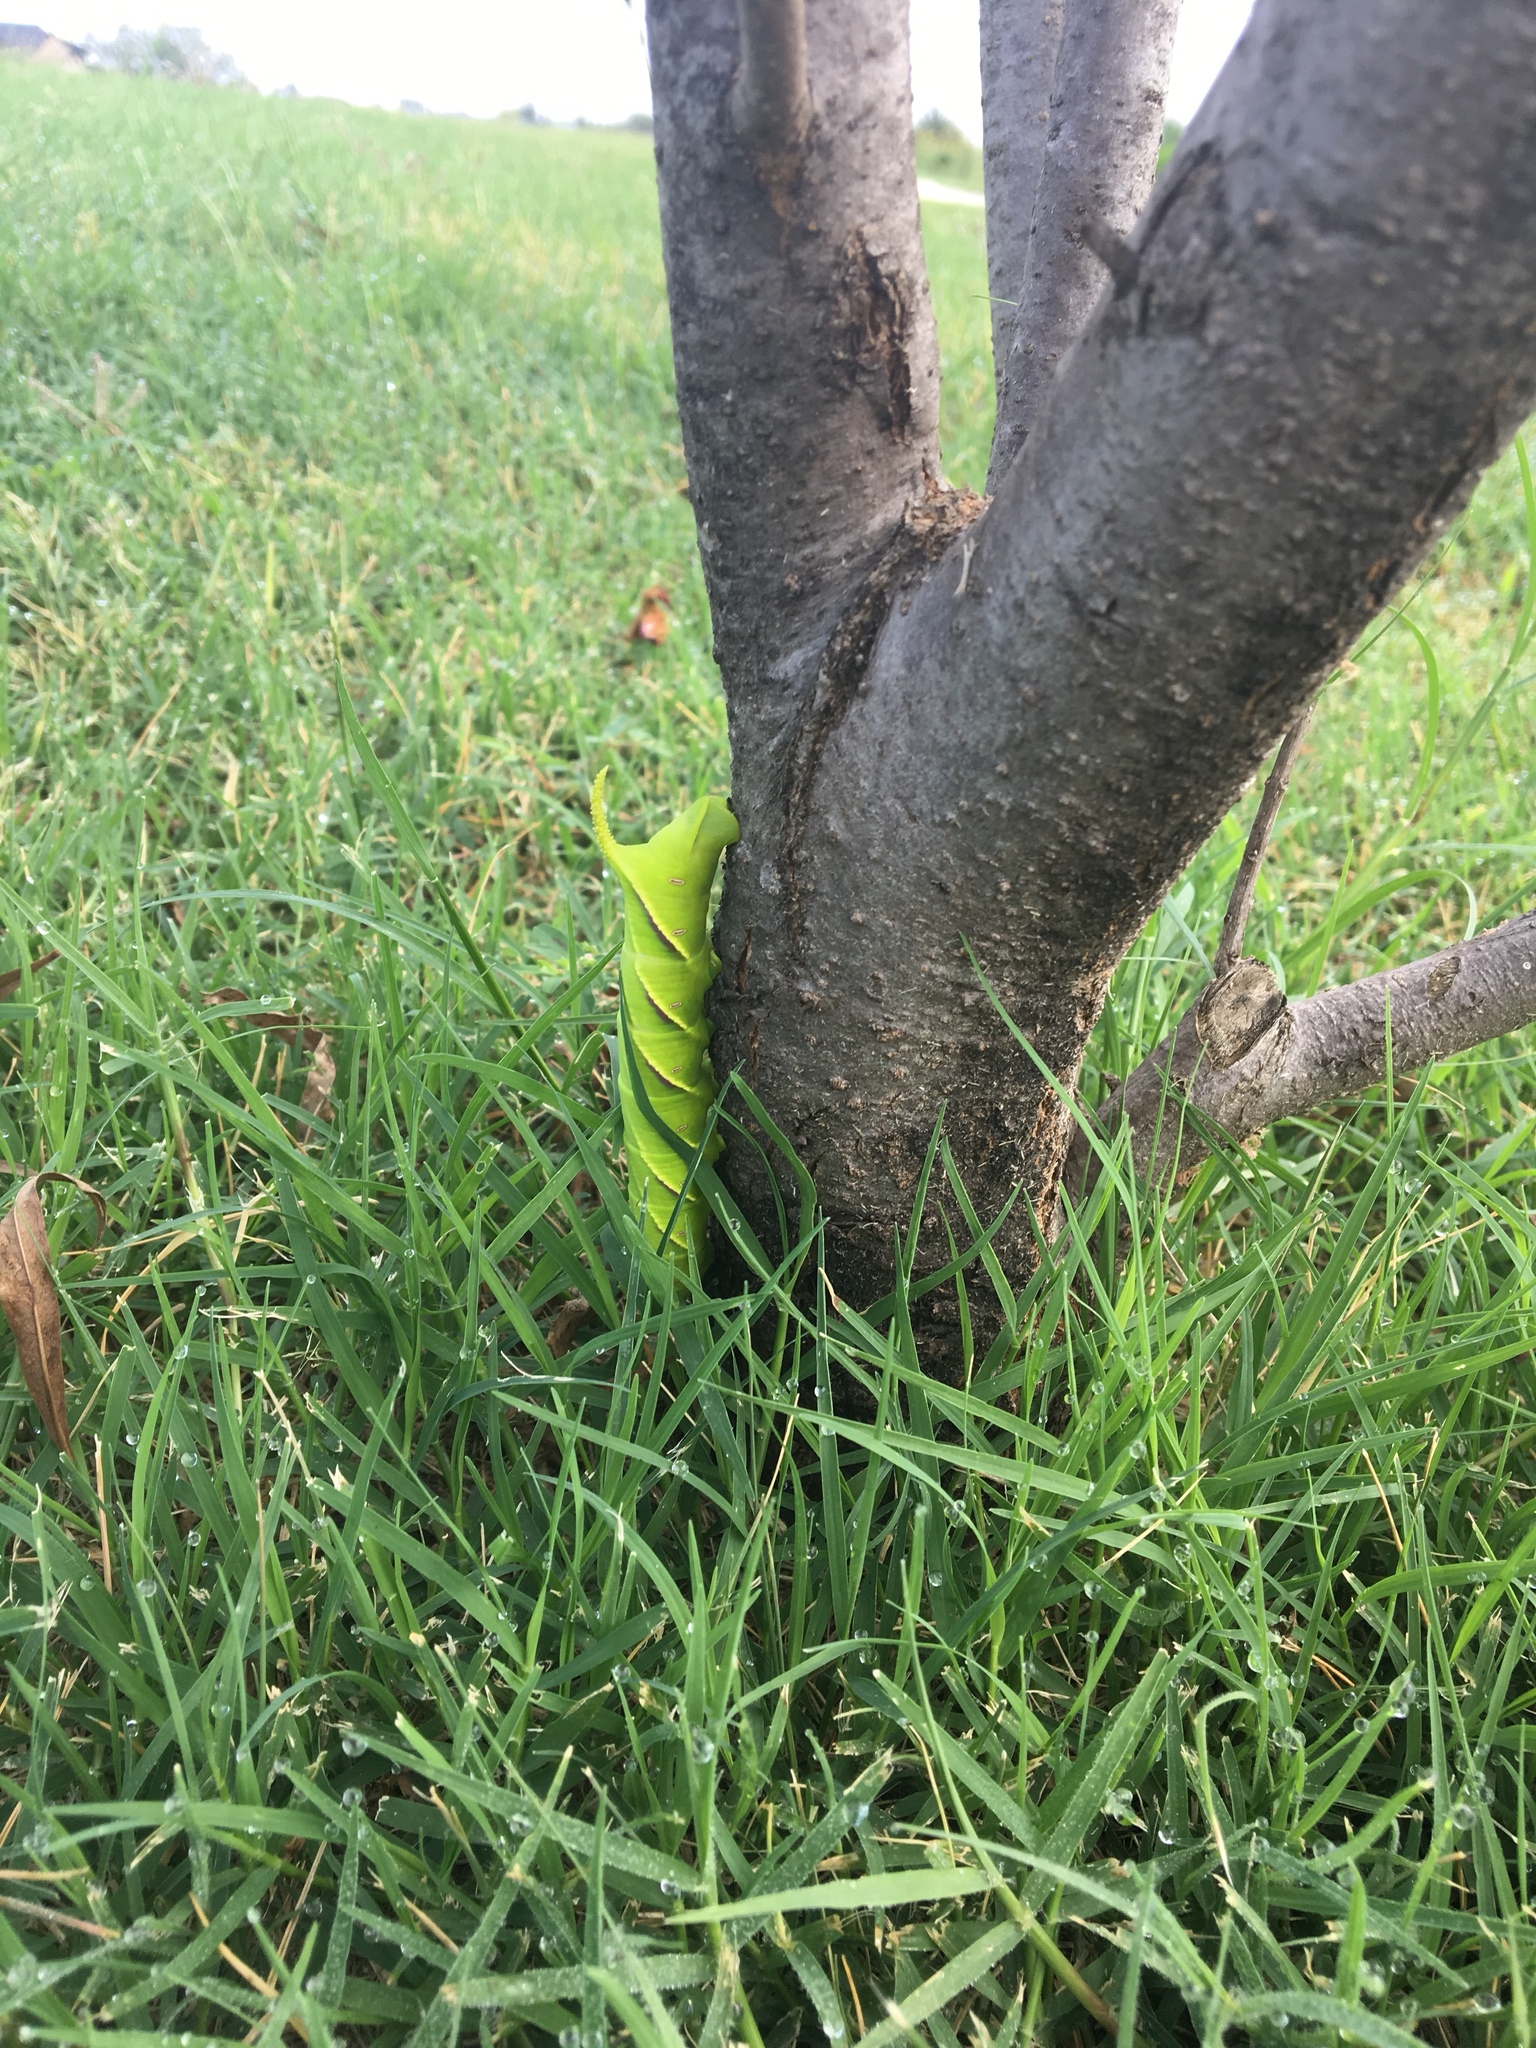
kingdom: Animalia
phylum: Arthropoda
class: Insecta
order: Lepidoptera
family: Sphingidae
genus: Manduca
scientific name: Manduca rustica
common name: Rustic sphinx
